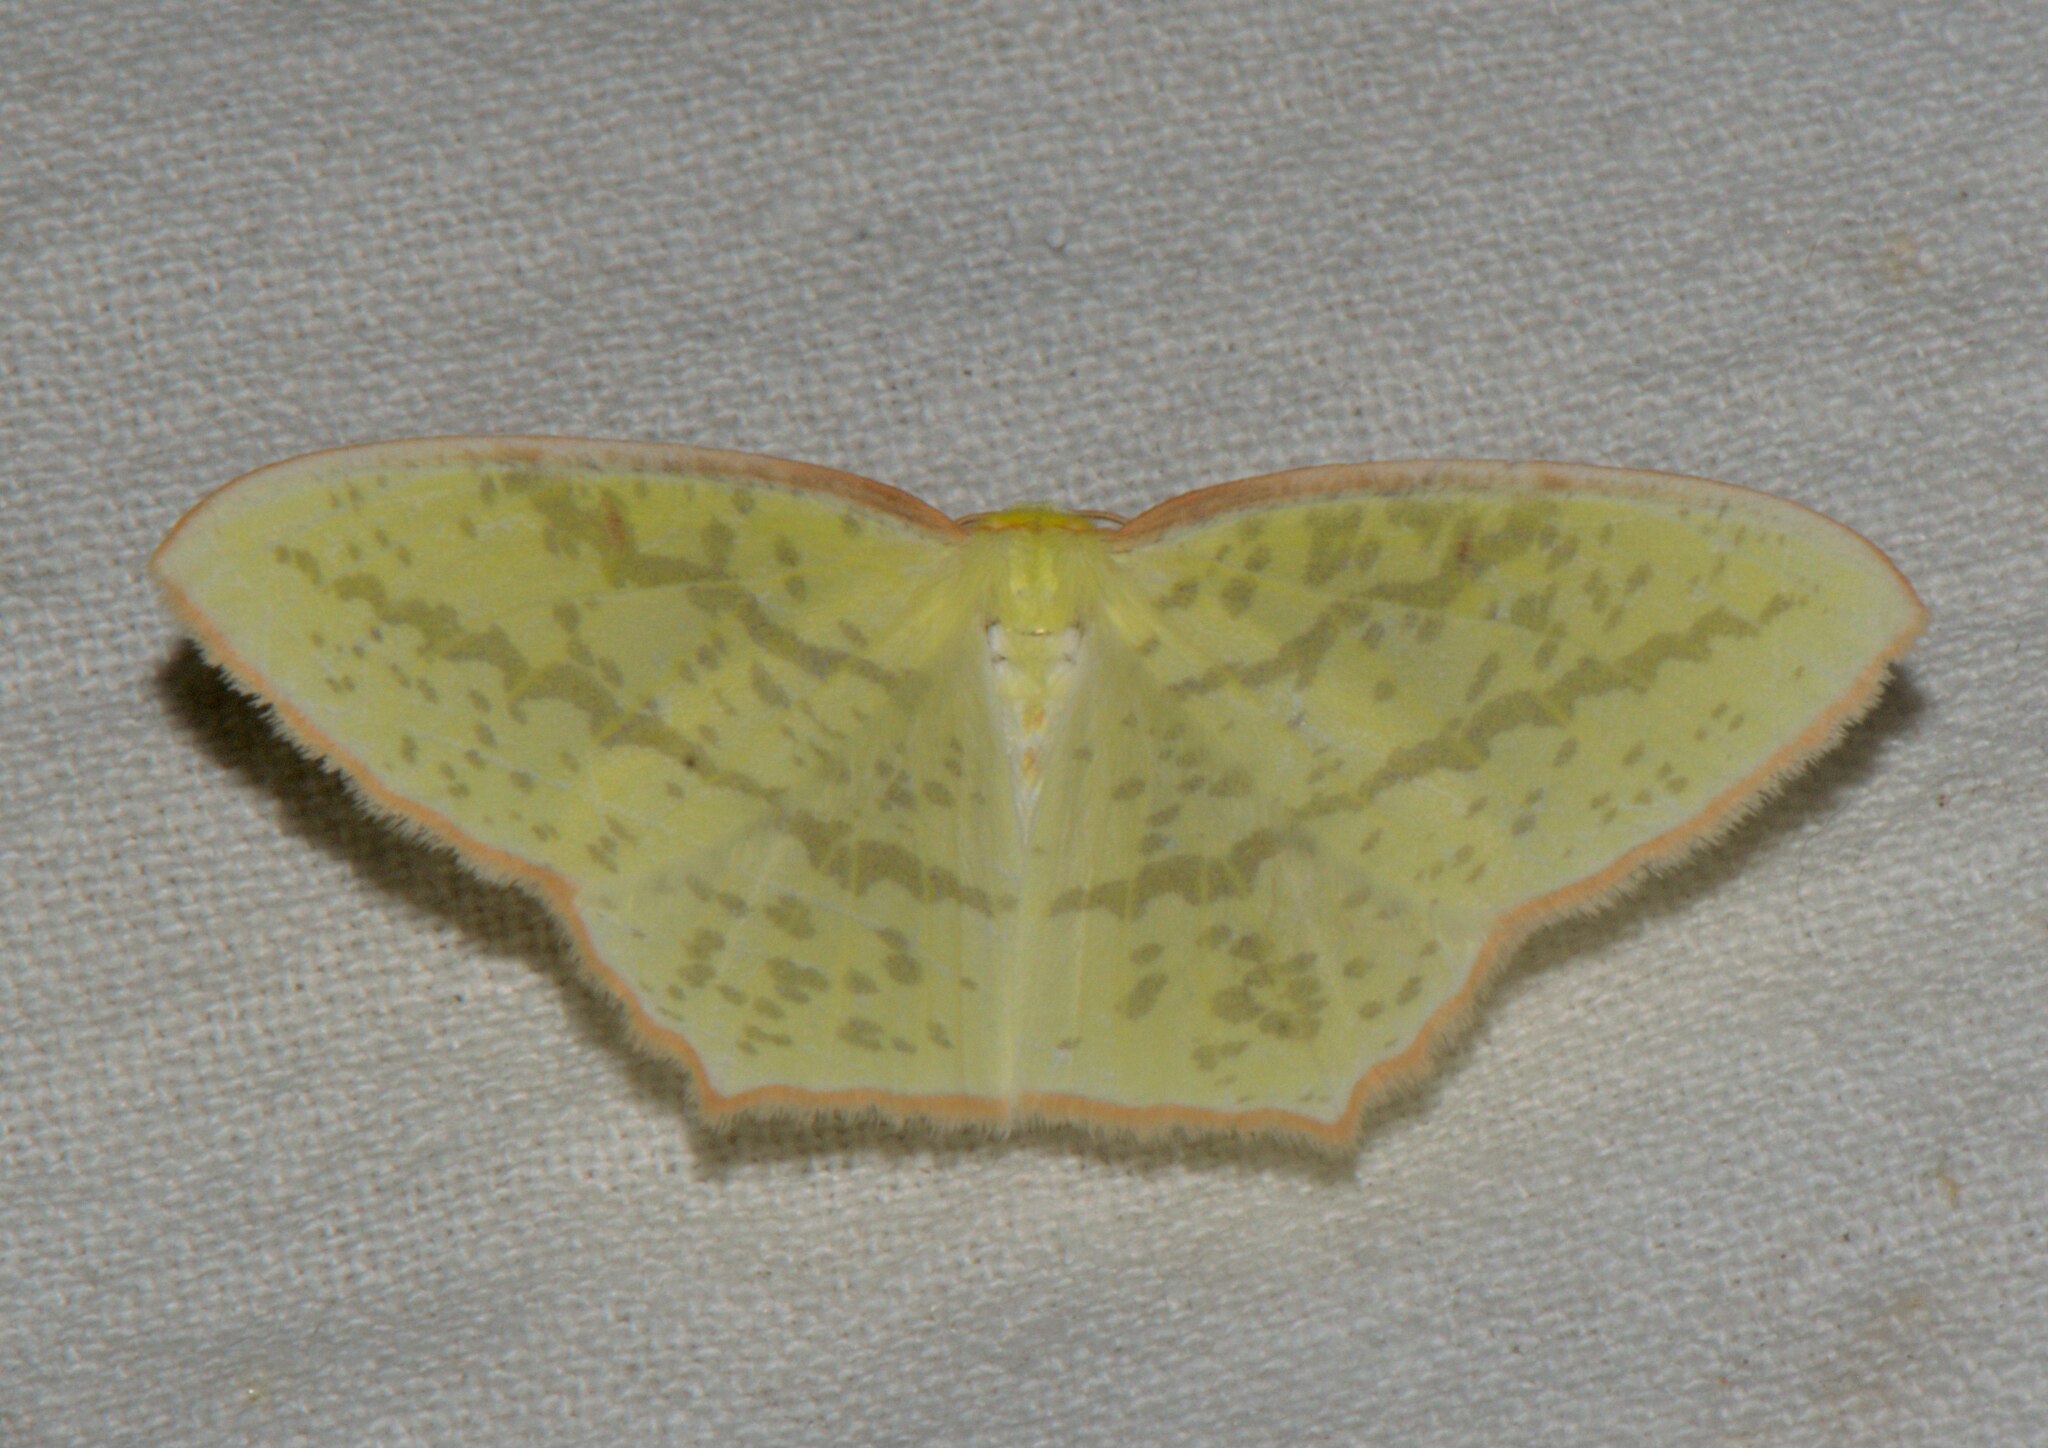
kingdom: Animalia
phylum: Arthropoda
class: Insecta
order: Lepidoptera
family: Geometridae
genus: Sirinopteryx
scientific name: Sirinopteryx rufivinctata
